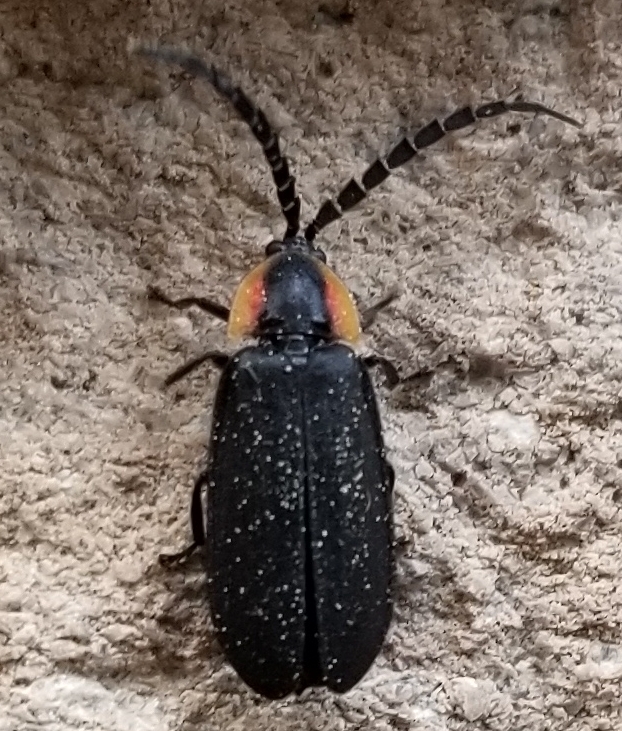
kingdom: Animalia
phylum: Arthropoda
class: Insecta
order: Coleoptera
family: Lampyridae
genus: Lucidota
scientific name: Lucidota atra
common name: Black firefly
